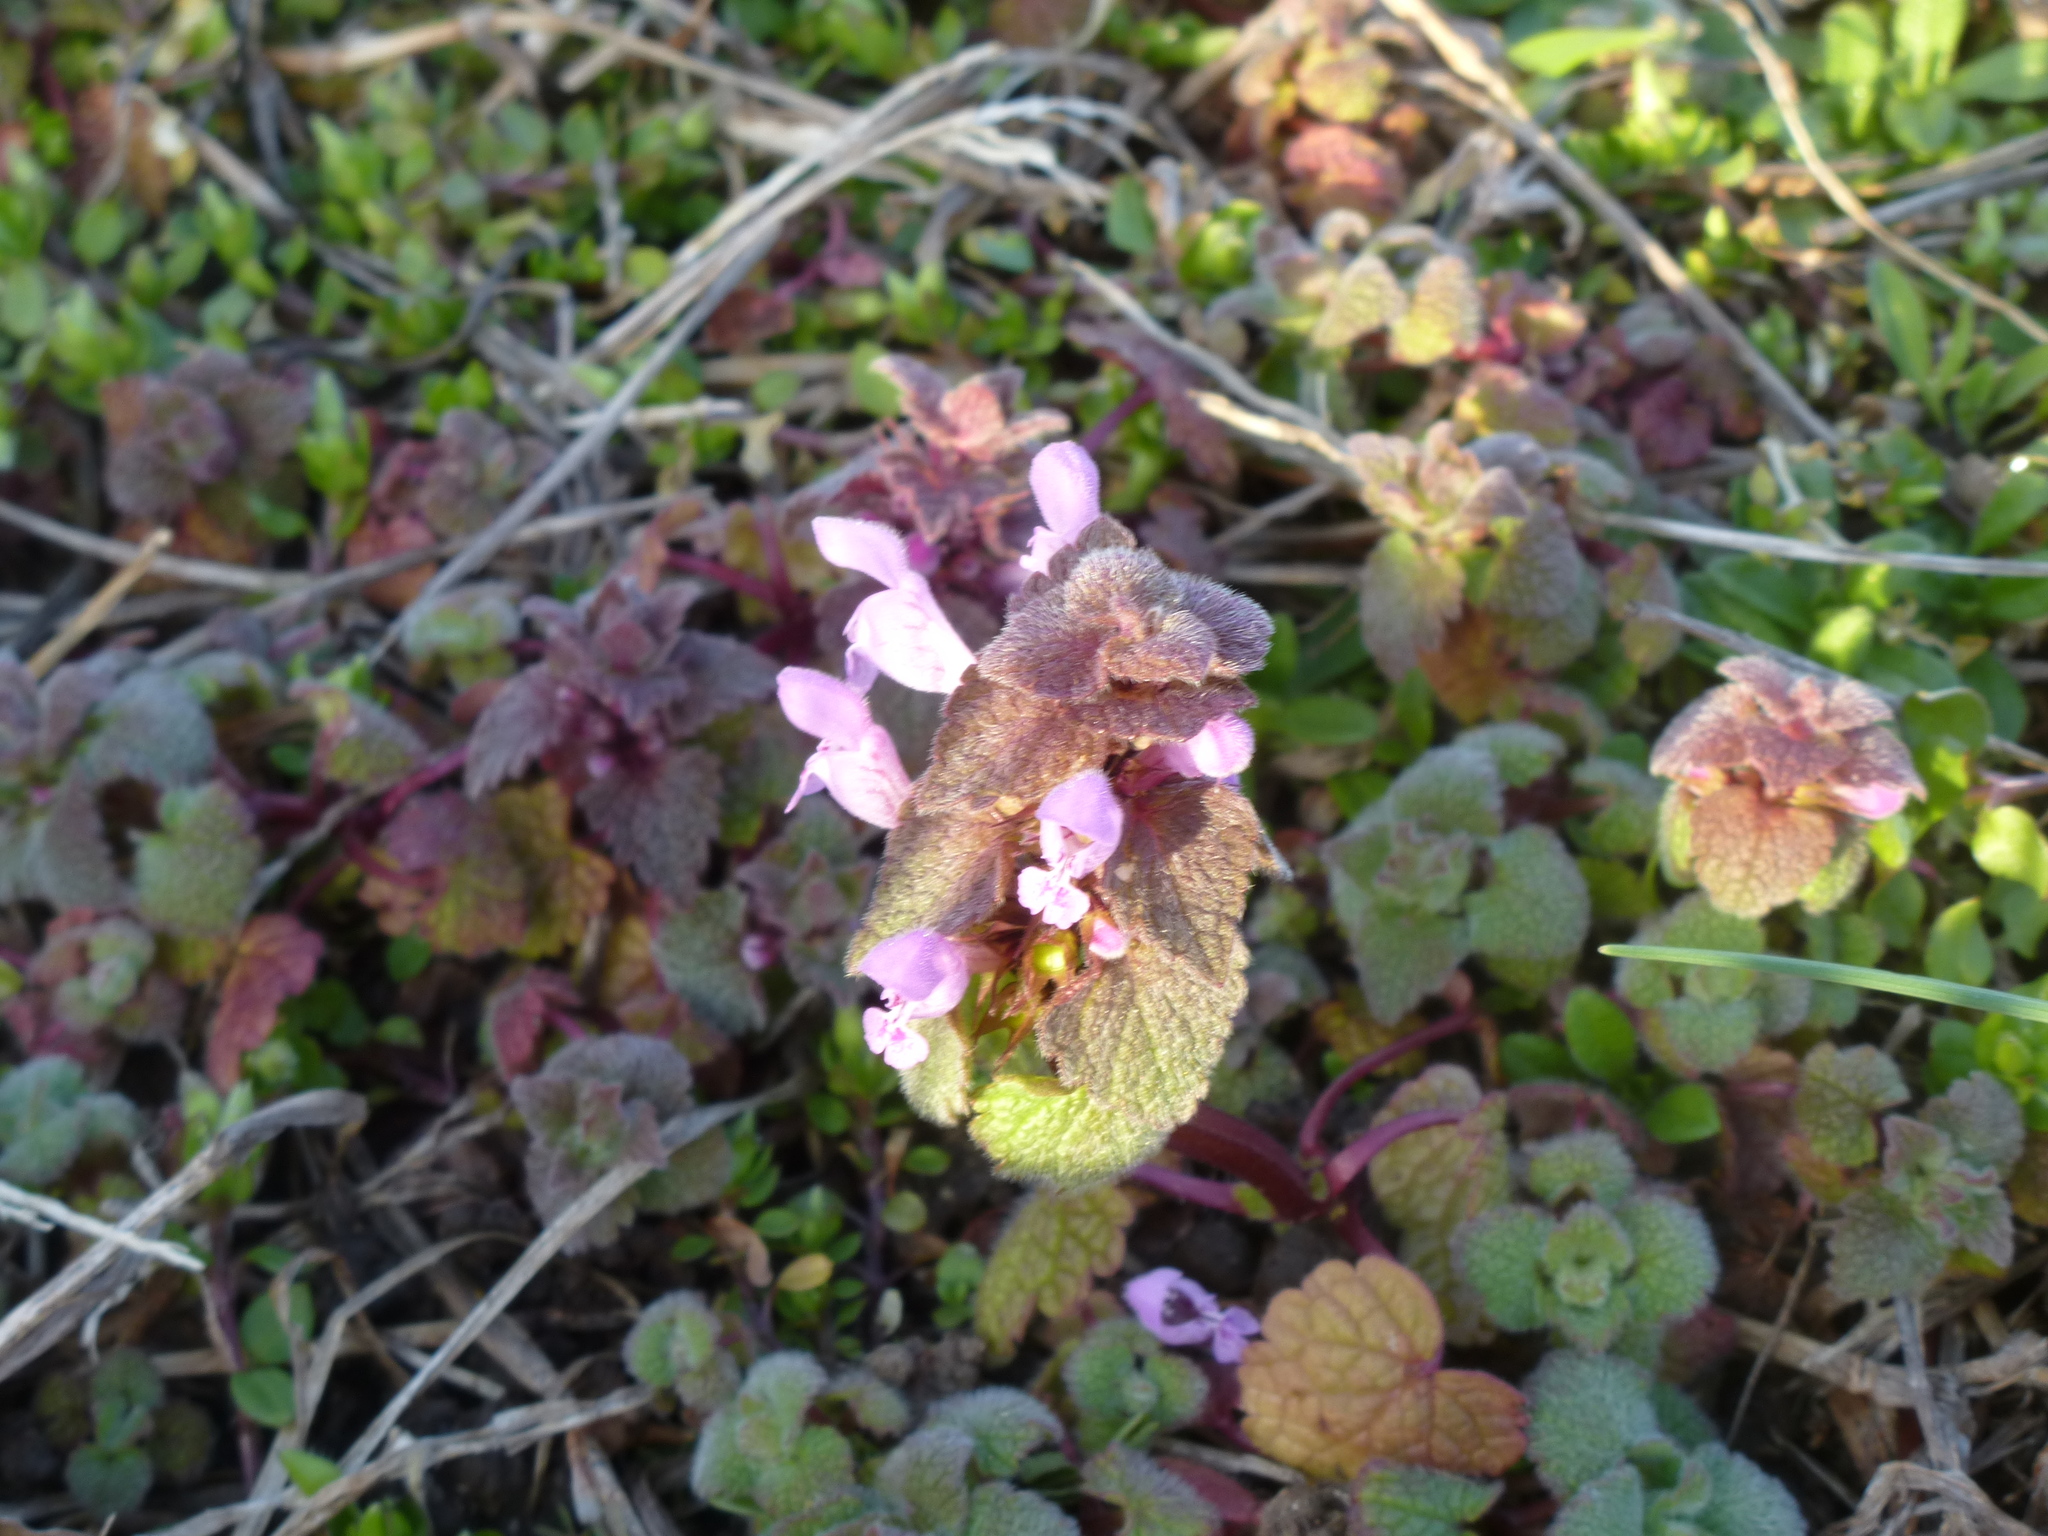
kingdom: Plantae
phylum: Tracheophyta
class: Magnoliopsida
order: Lamiales
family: Lamiaceae
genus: Lamium
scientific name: Lamium purpureum
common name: Red dead-nettle
